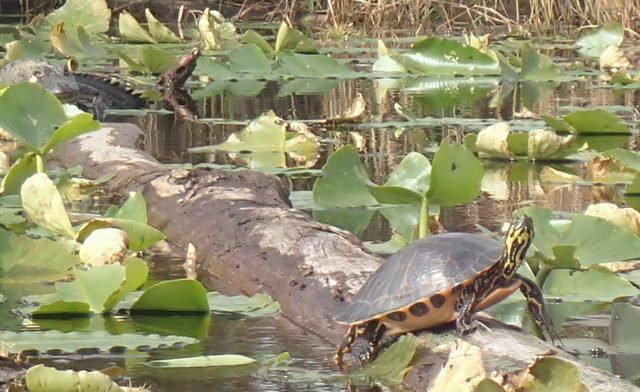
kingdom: Animalia
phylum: Chordata
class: Testudines
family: Emydidae
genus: Pseudemys
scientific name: Pseudemys concinna
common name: Eastern river cooter
